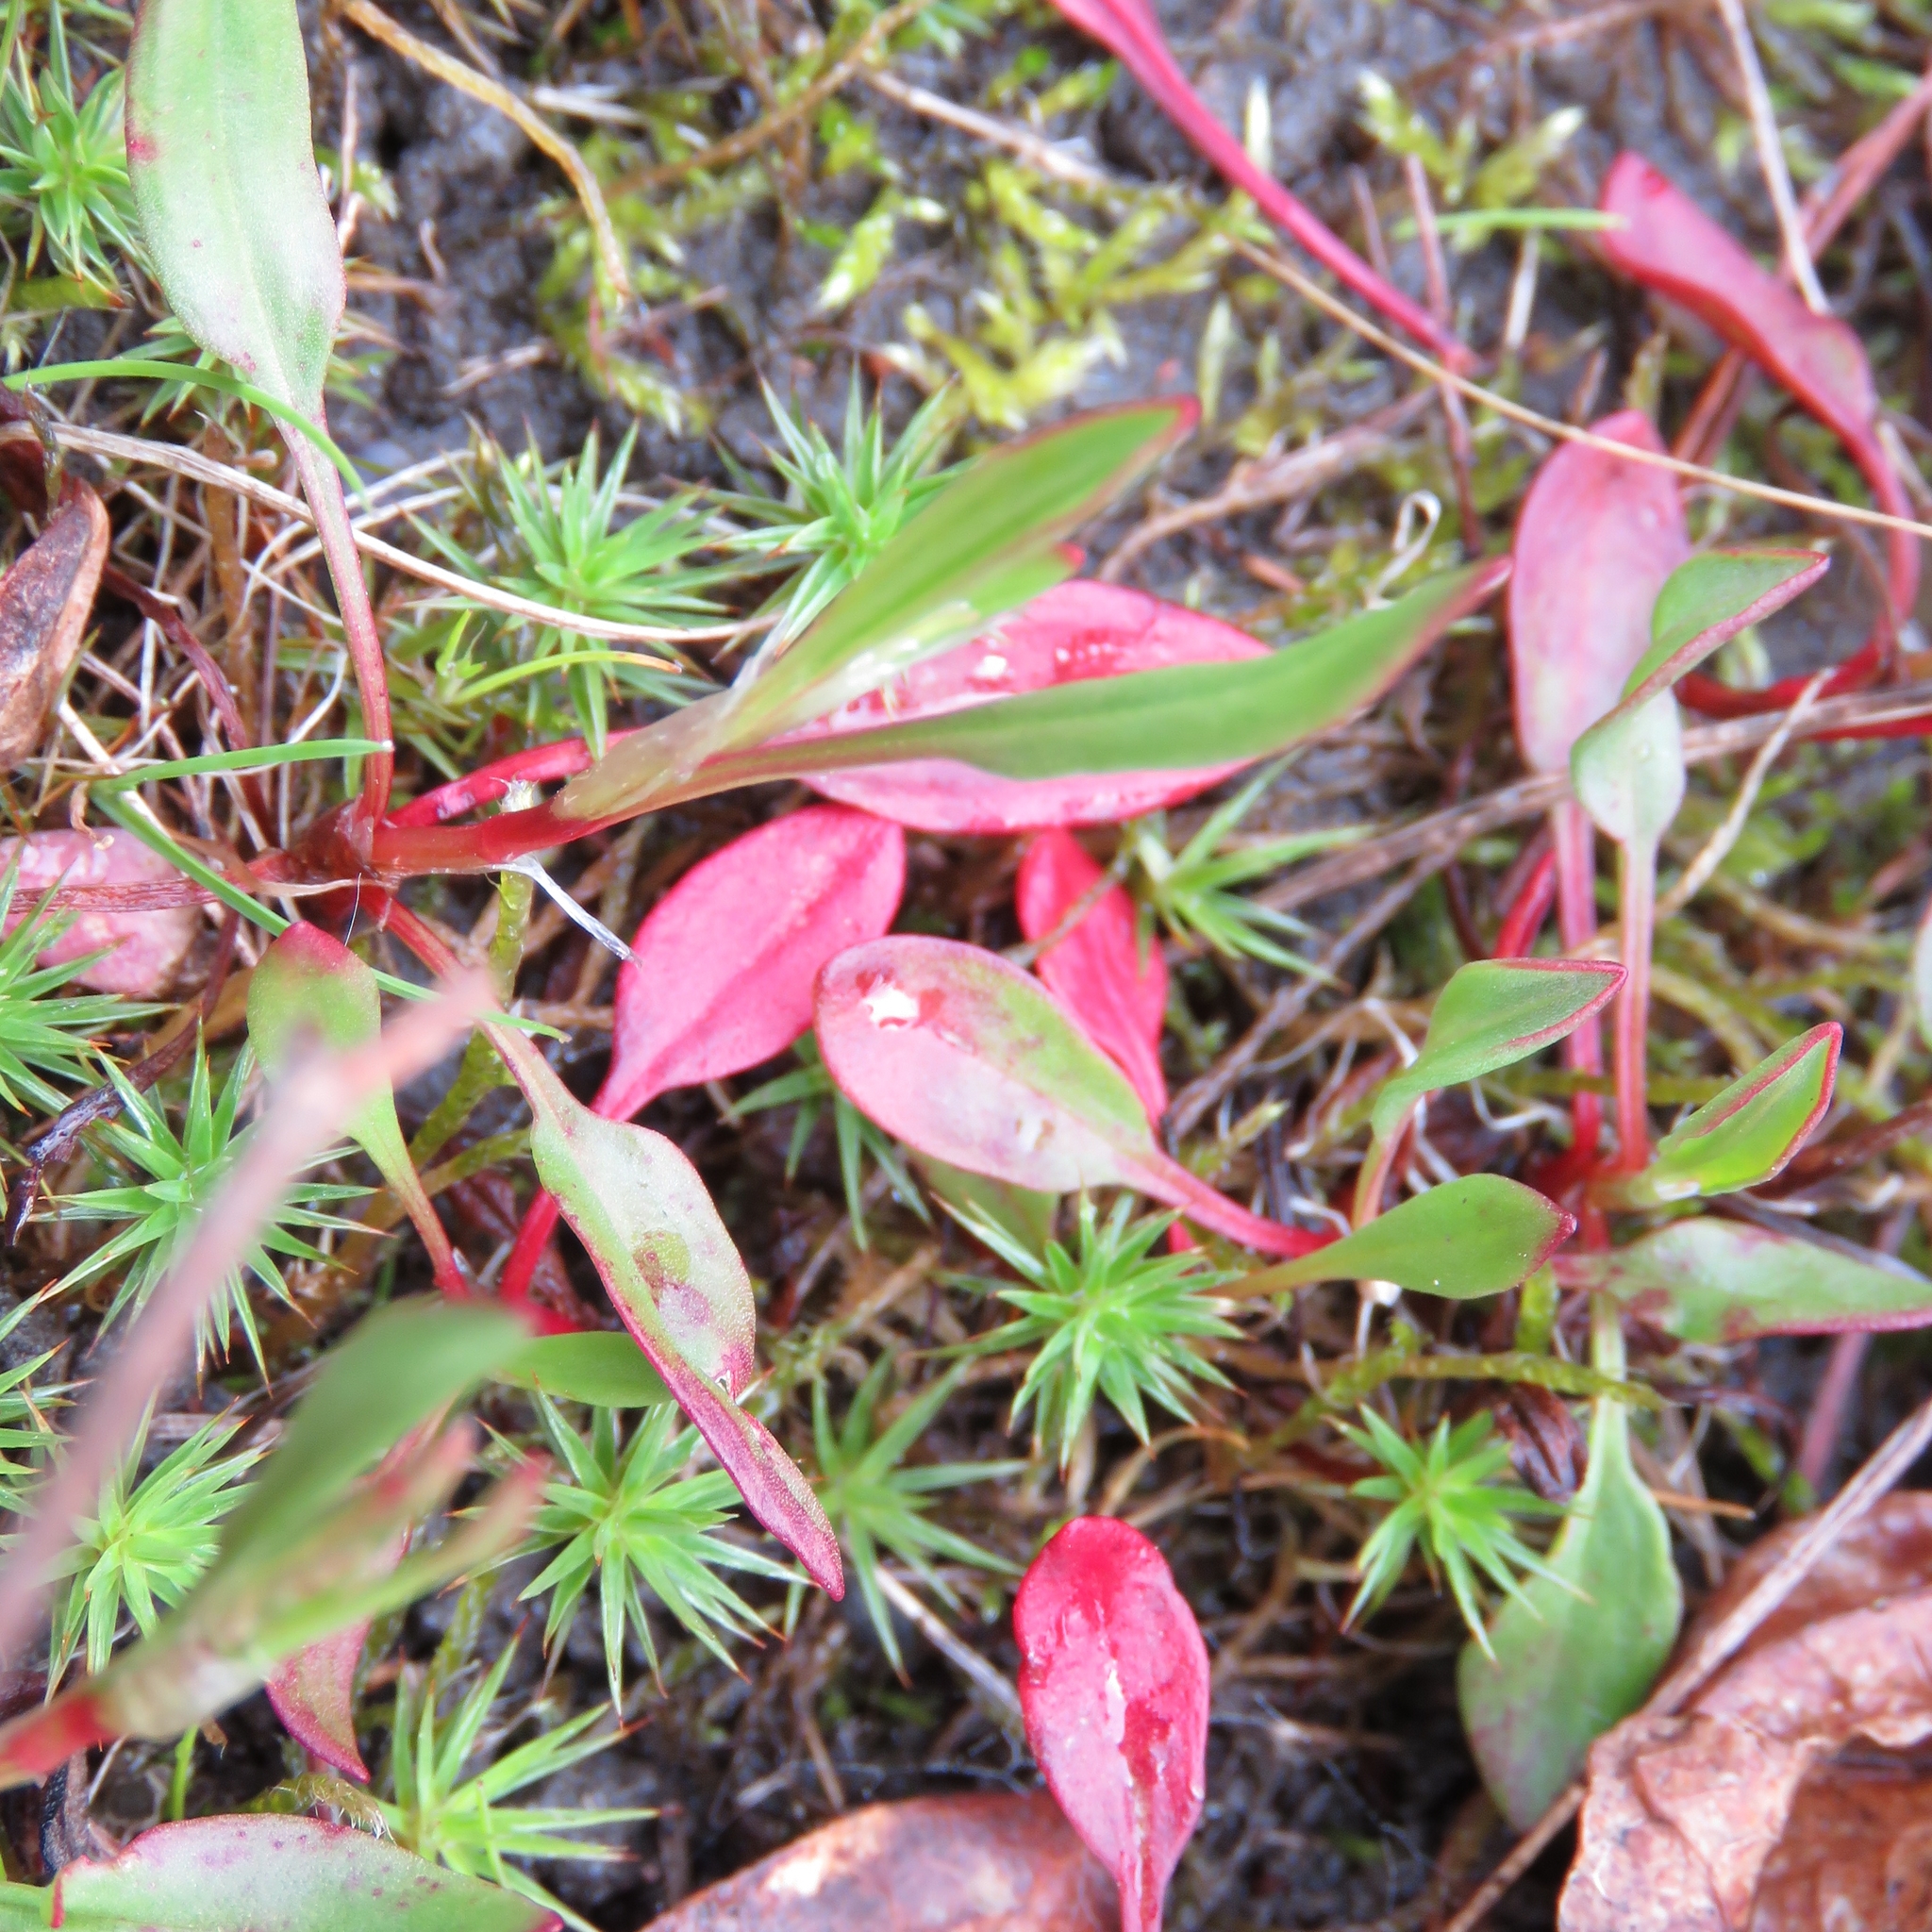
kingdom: Plantae
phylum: Tracheophyta
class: Magnoliopsida
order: Caryophyllales
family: Polygonaceae
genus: Rumex
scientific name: Rumex acetosella
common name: Common sheep sorrel
